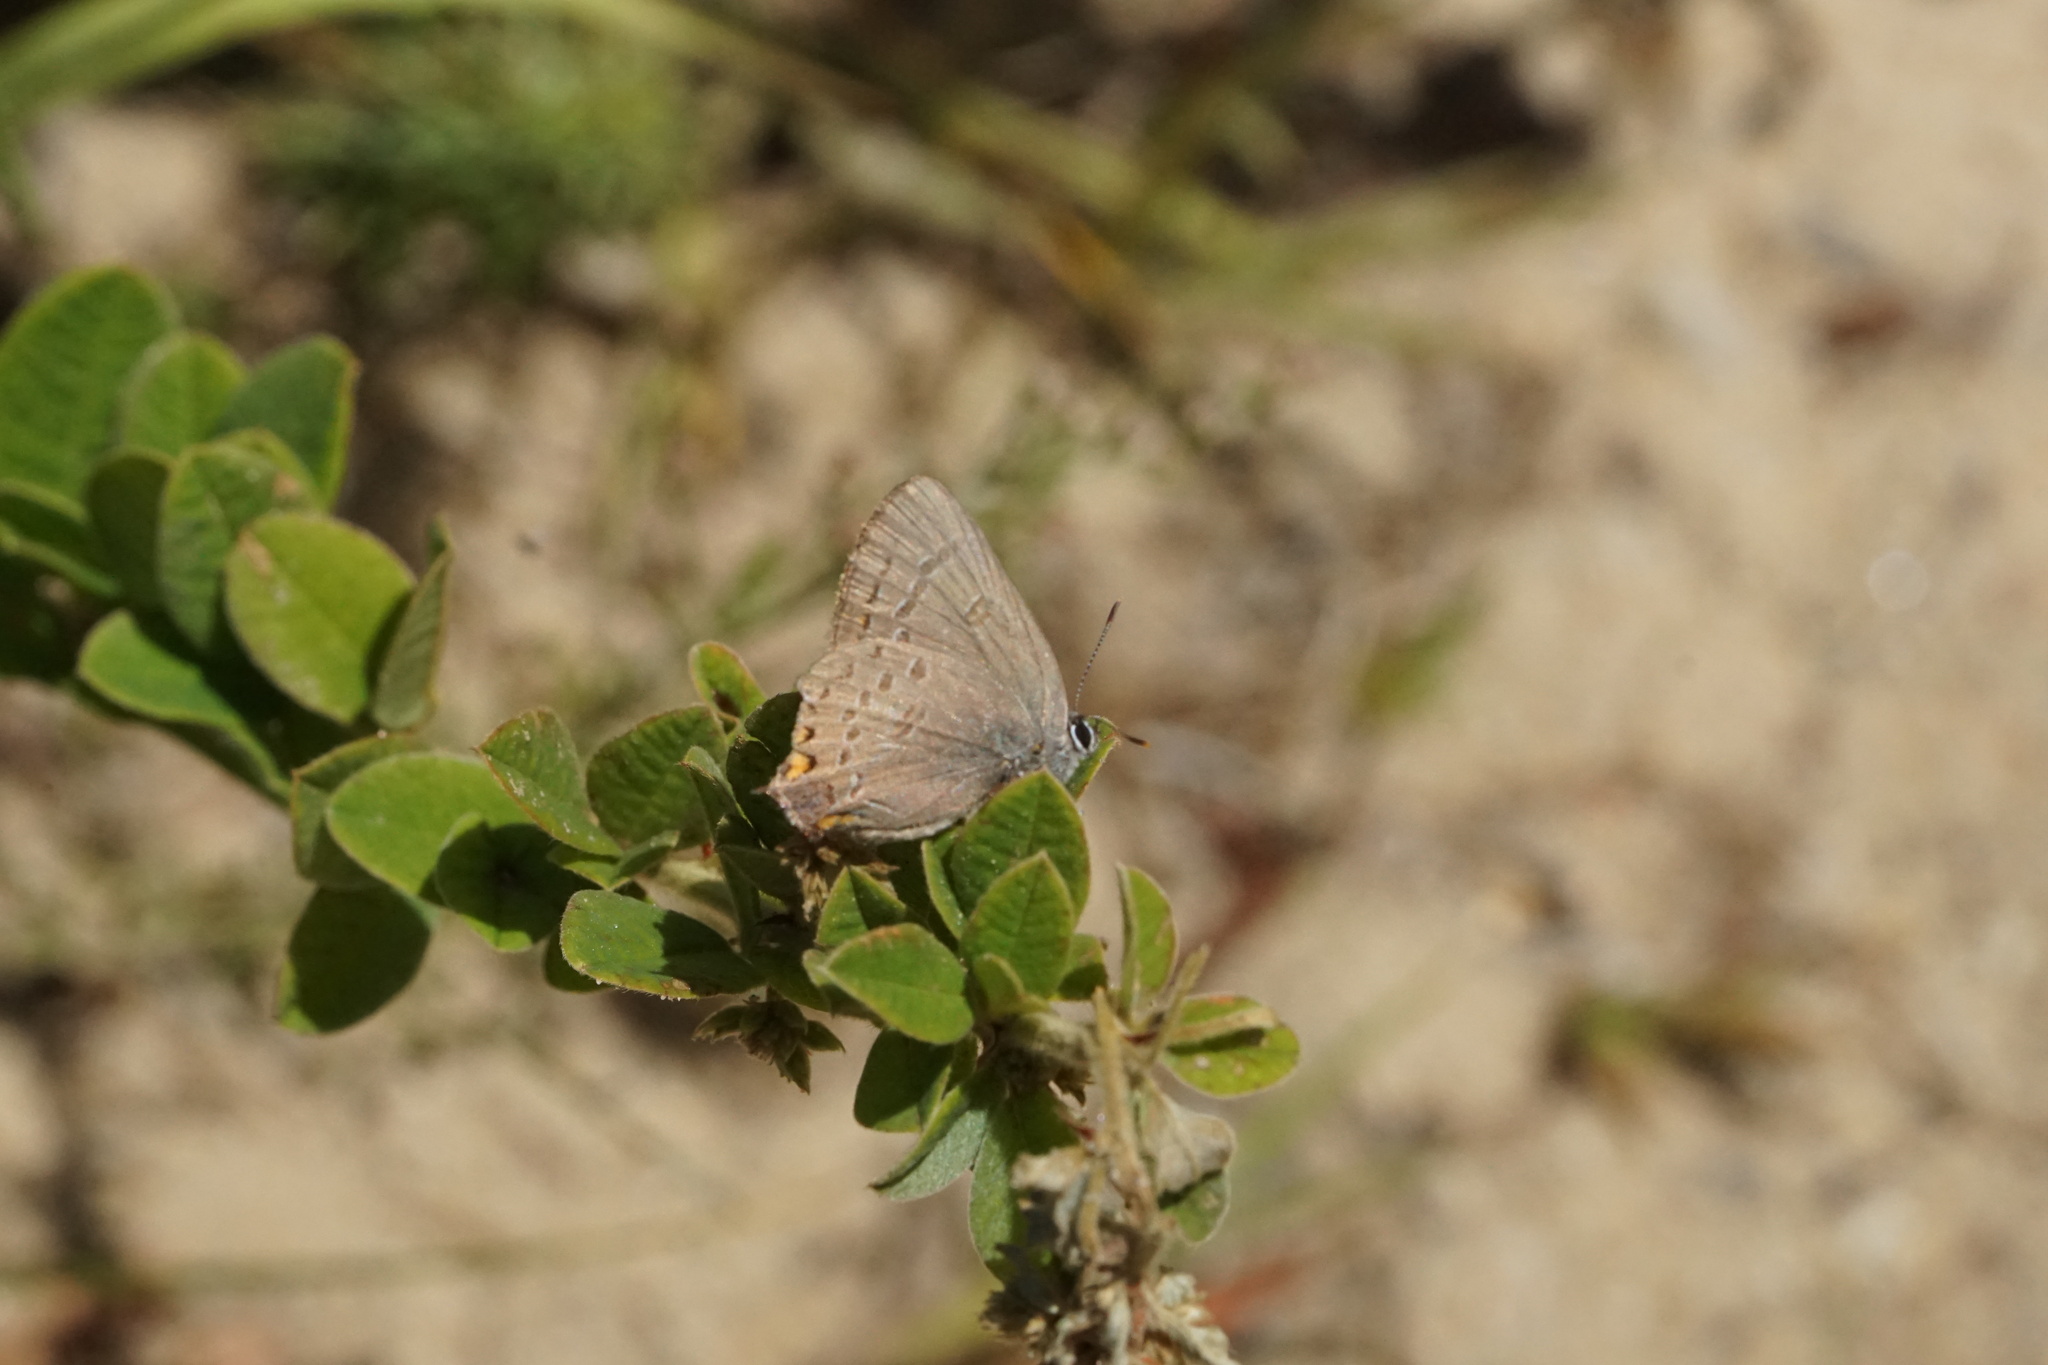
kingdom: Animalia
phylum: Arthropoda
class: Insecta
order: Lepidoptera
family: Lycaenidae
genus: Satyrium
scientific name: Satyrium edwardsii
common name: Edwards' hairstreak
